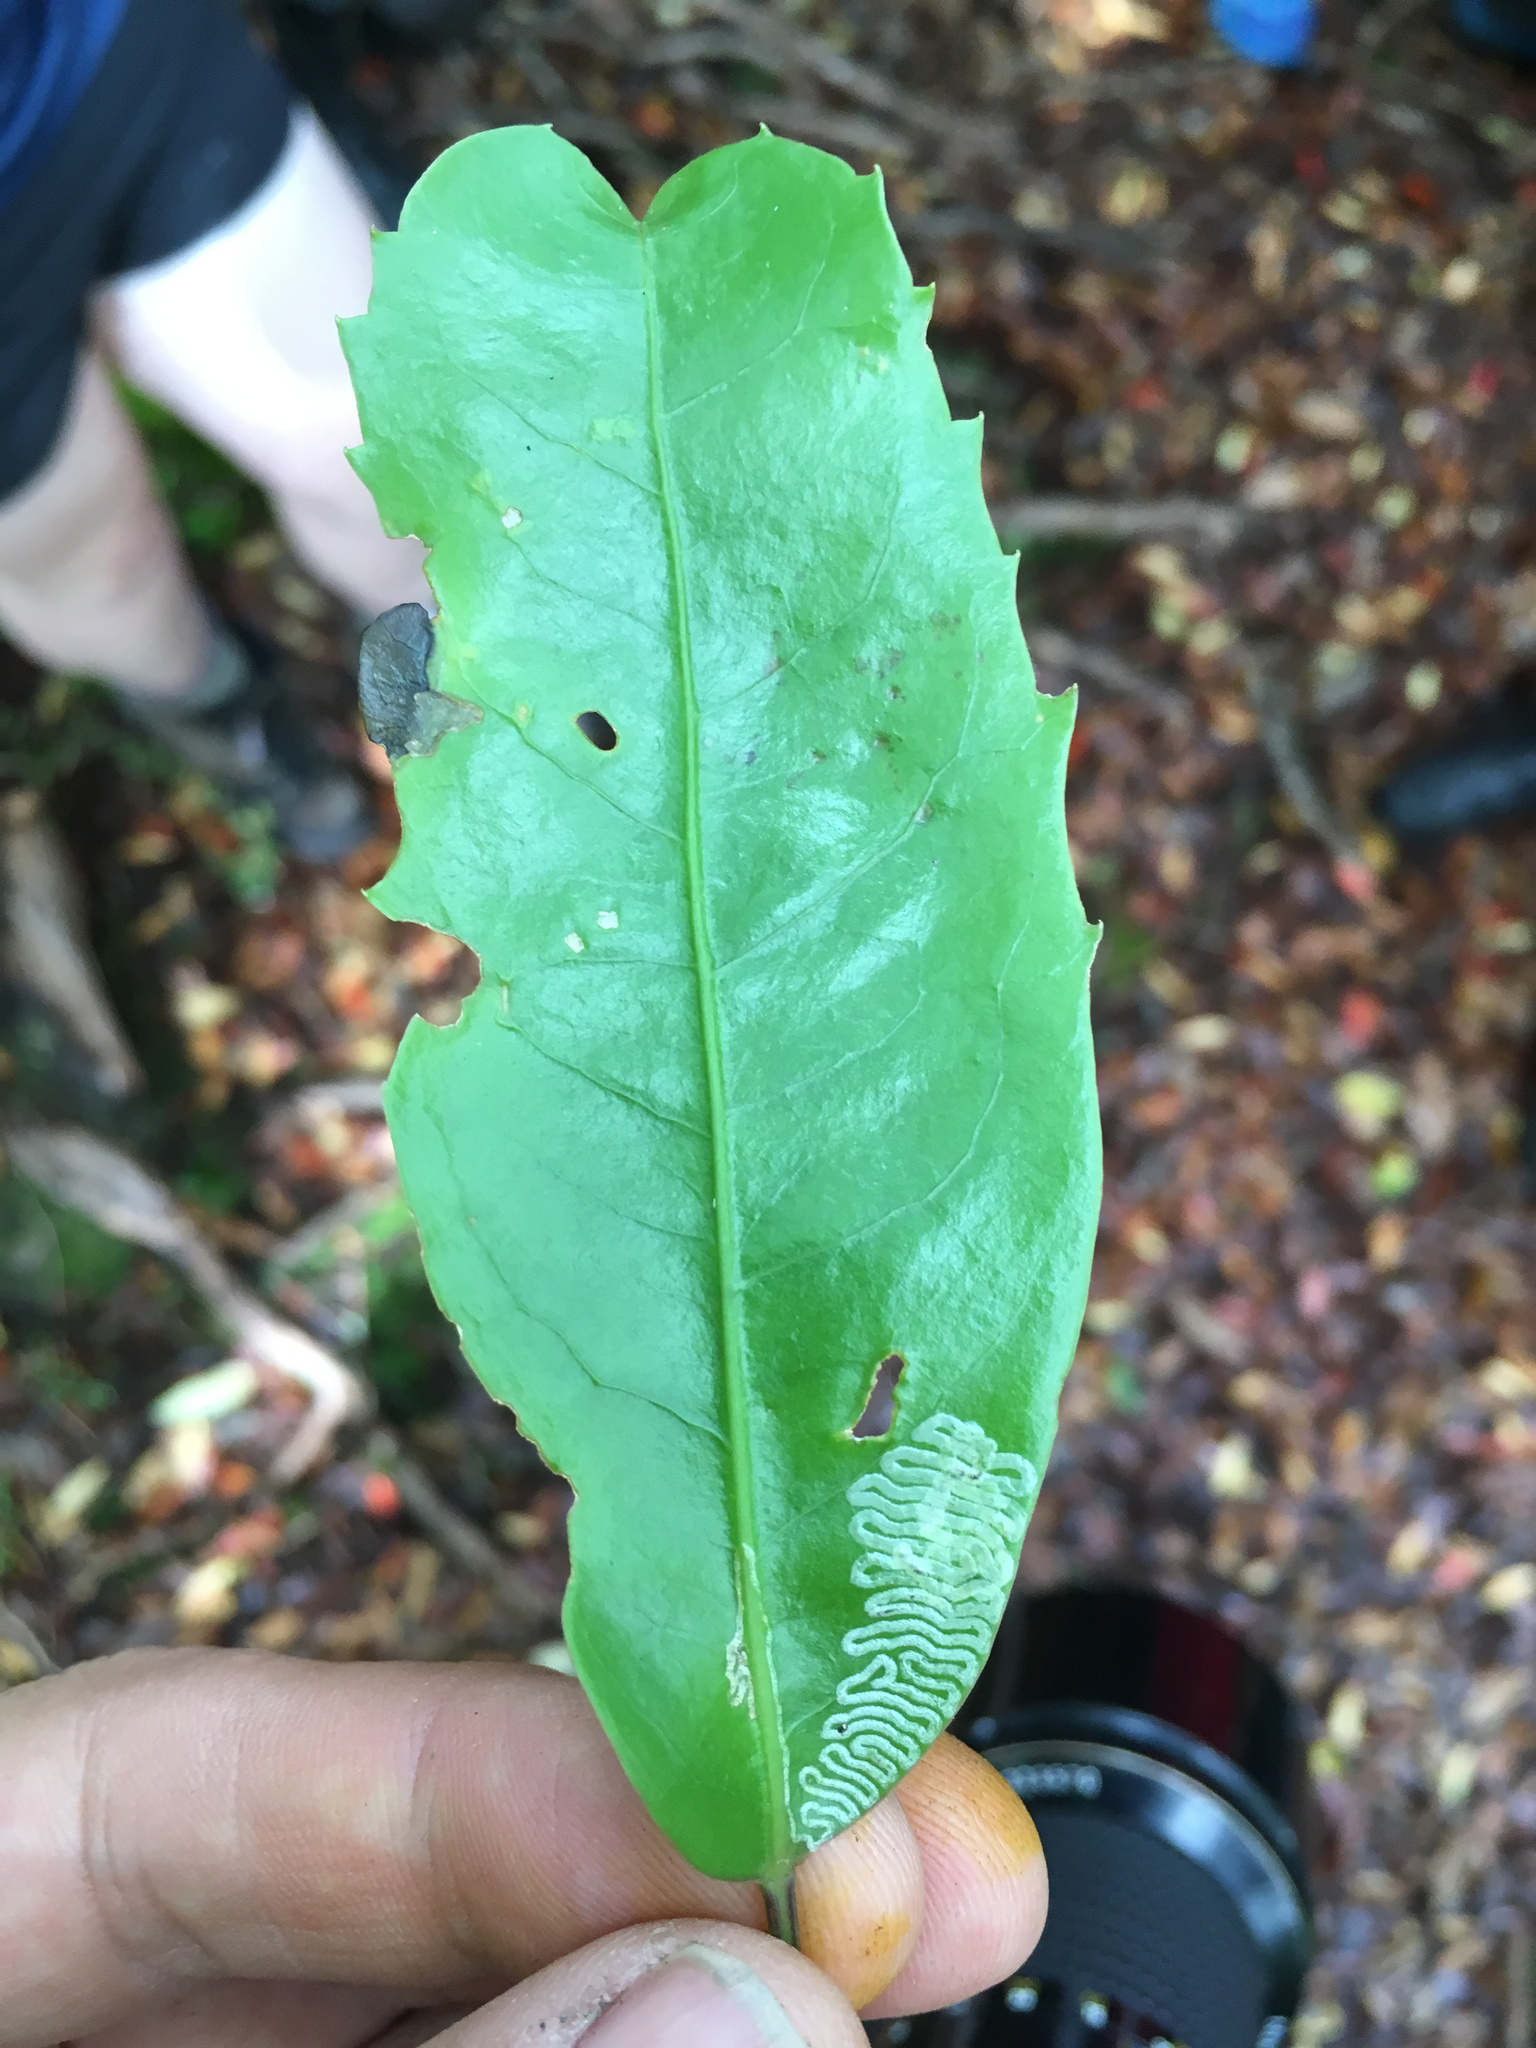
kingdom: Animalia
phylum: Arthropoda
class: Insecta
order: Lepidoptera
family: Gracillariidae
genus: Eumetriochroa
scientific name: Eumetriochroa panacivermiforma
